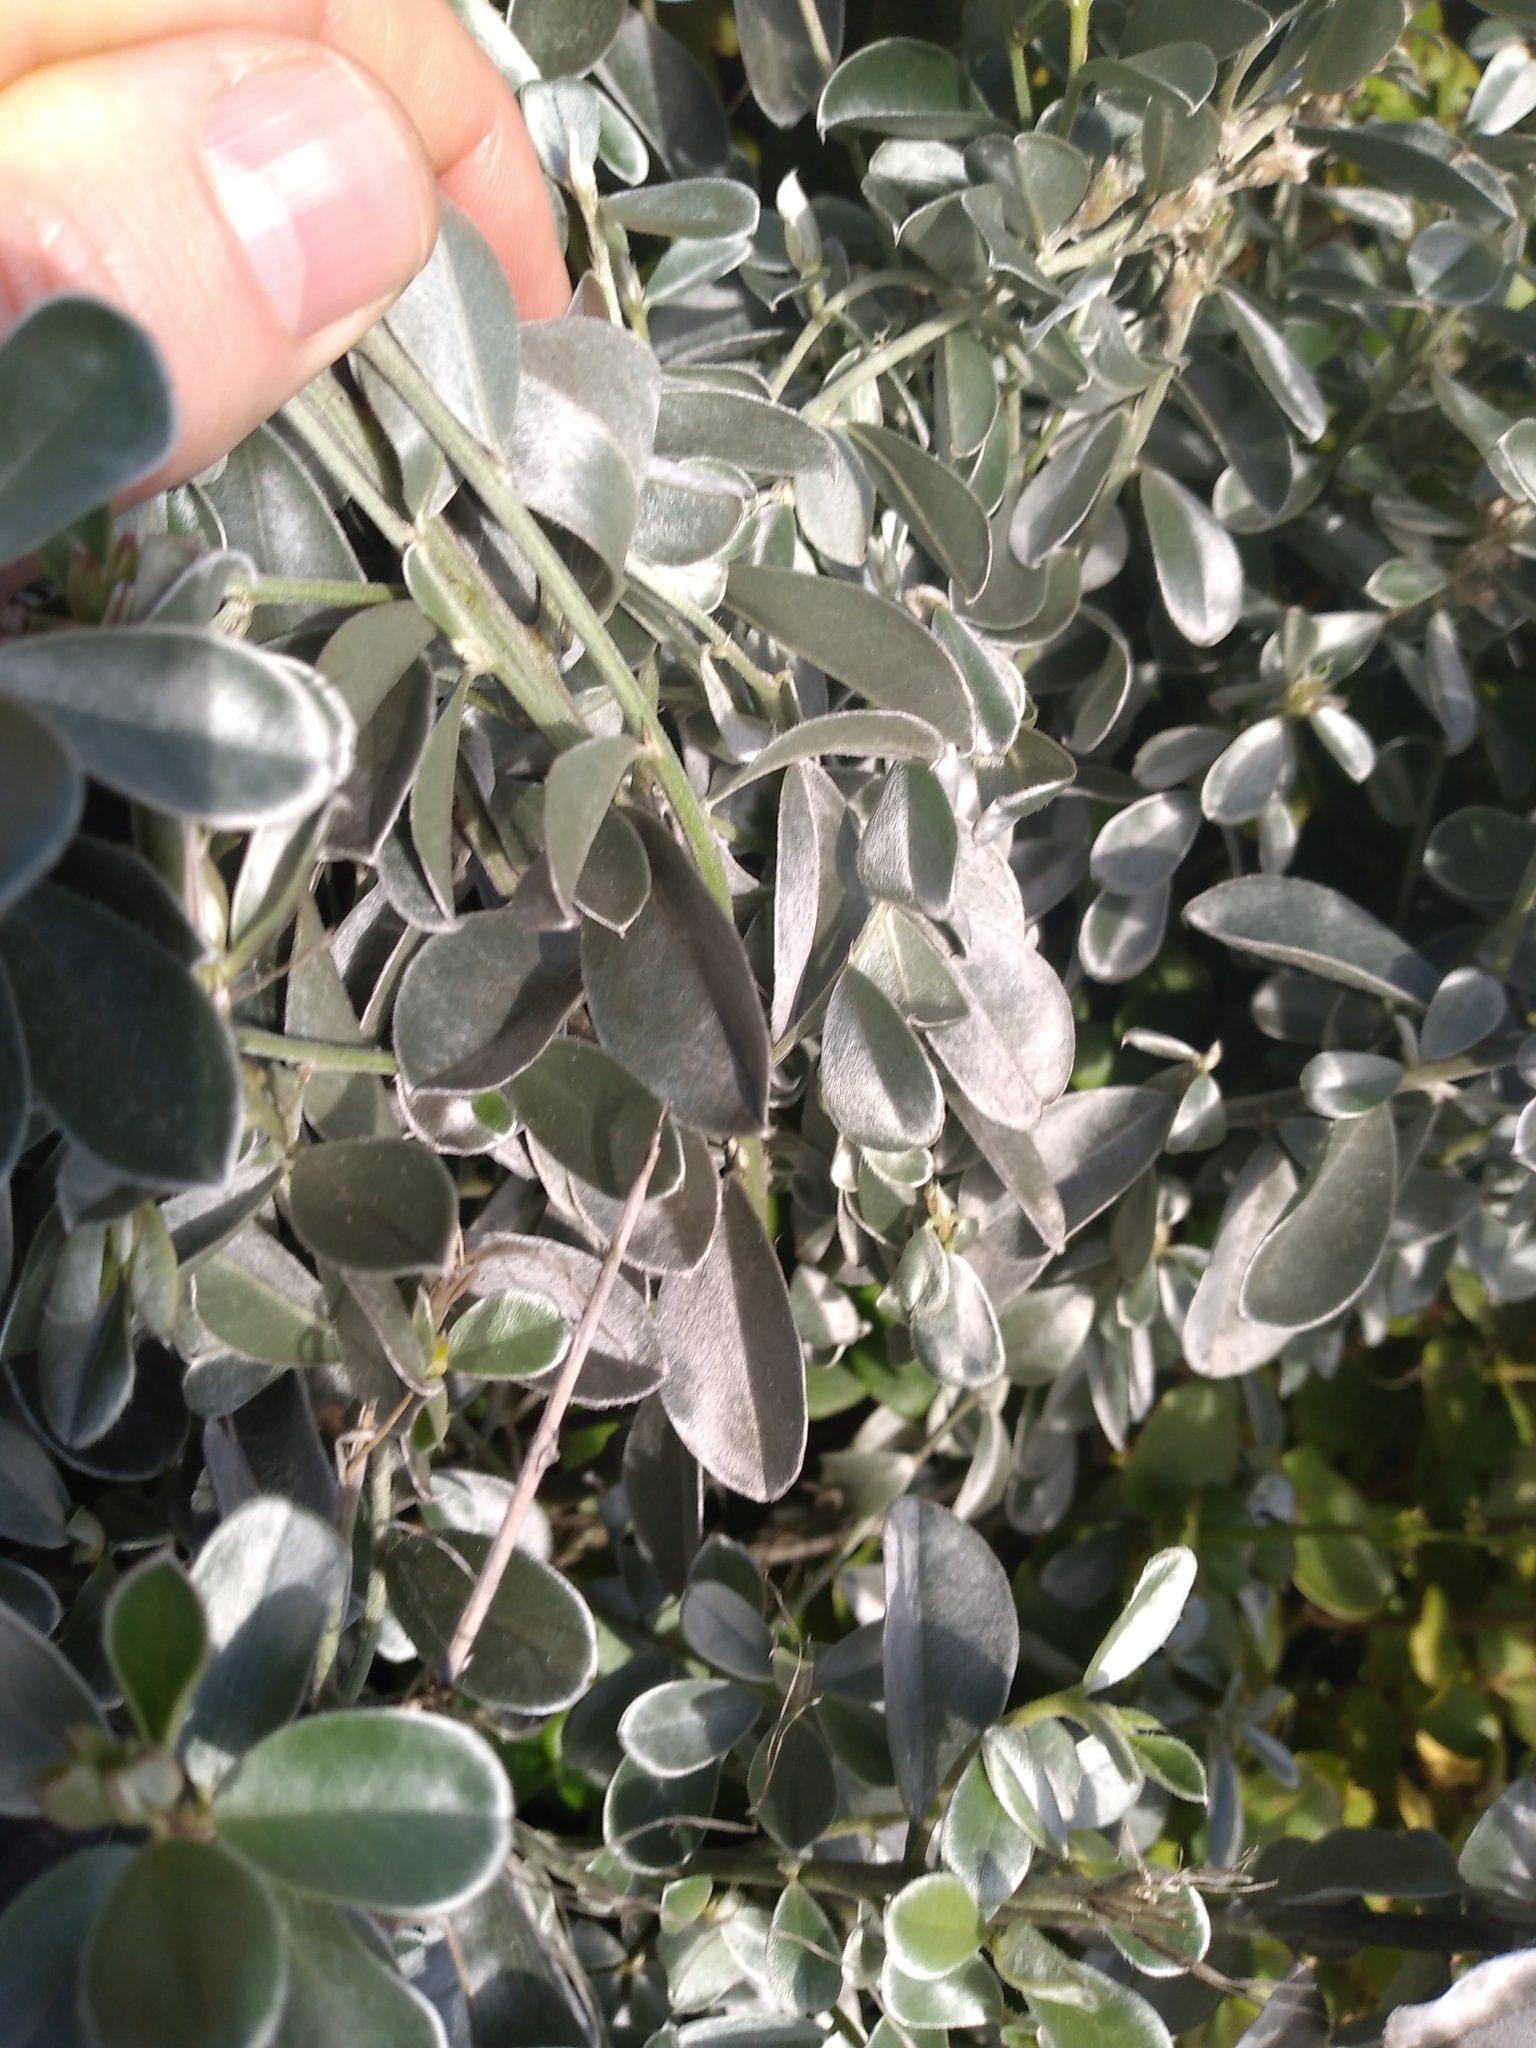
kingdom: Plantae
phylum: Tracheophyta
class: Magnoliopsida
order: Fabales
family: Fabaceae
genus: Podalyria
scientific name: Podalyria sericea
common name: Silver podalyria
